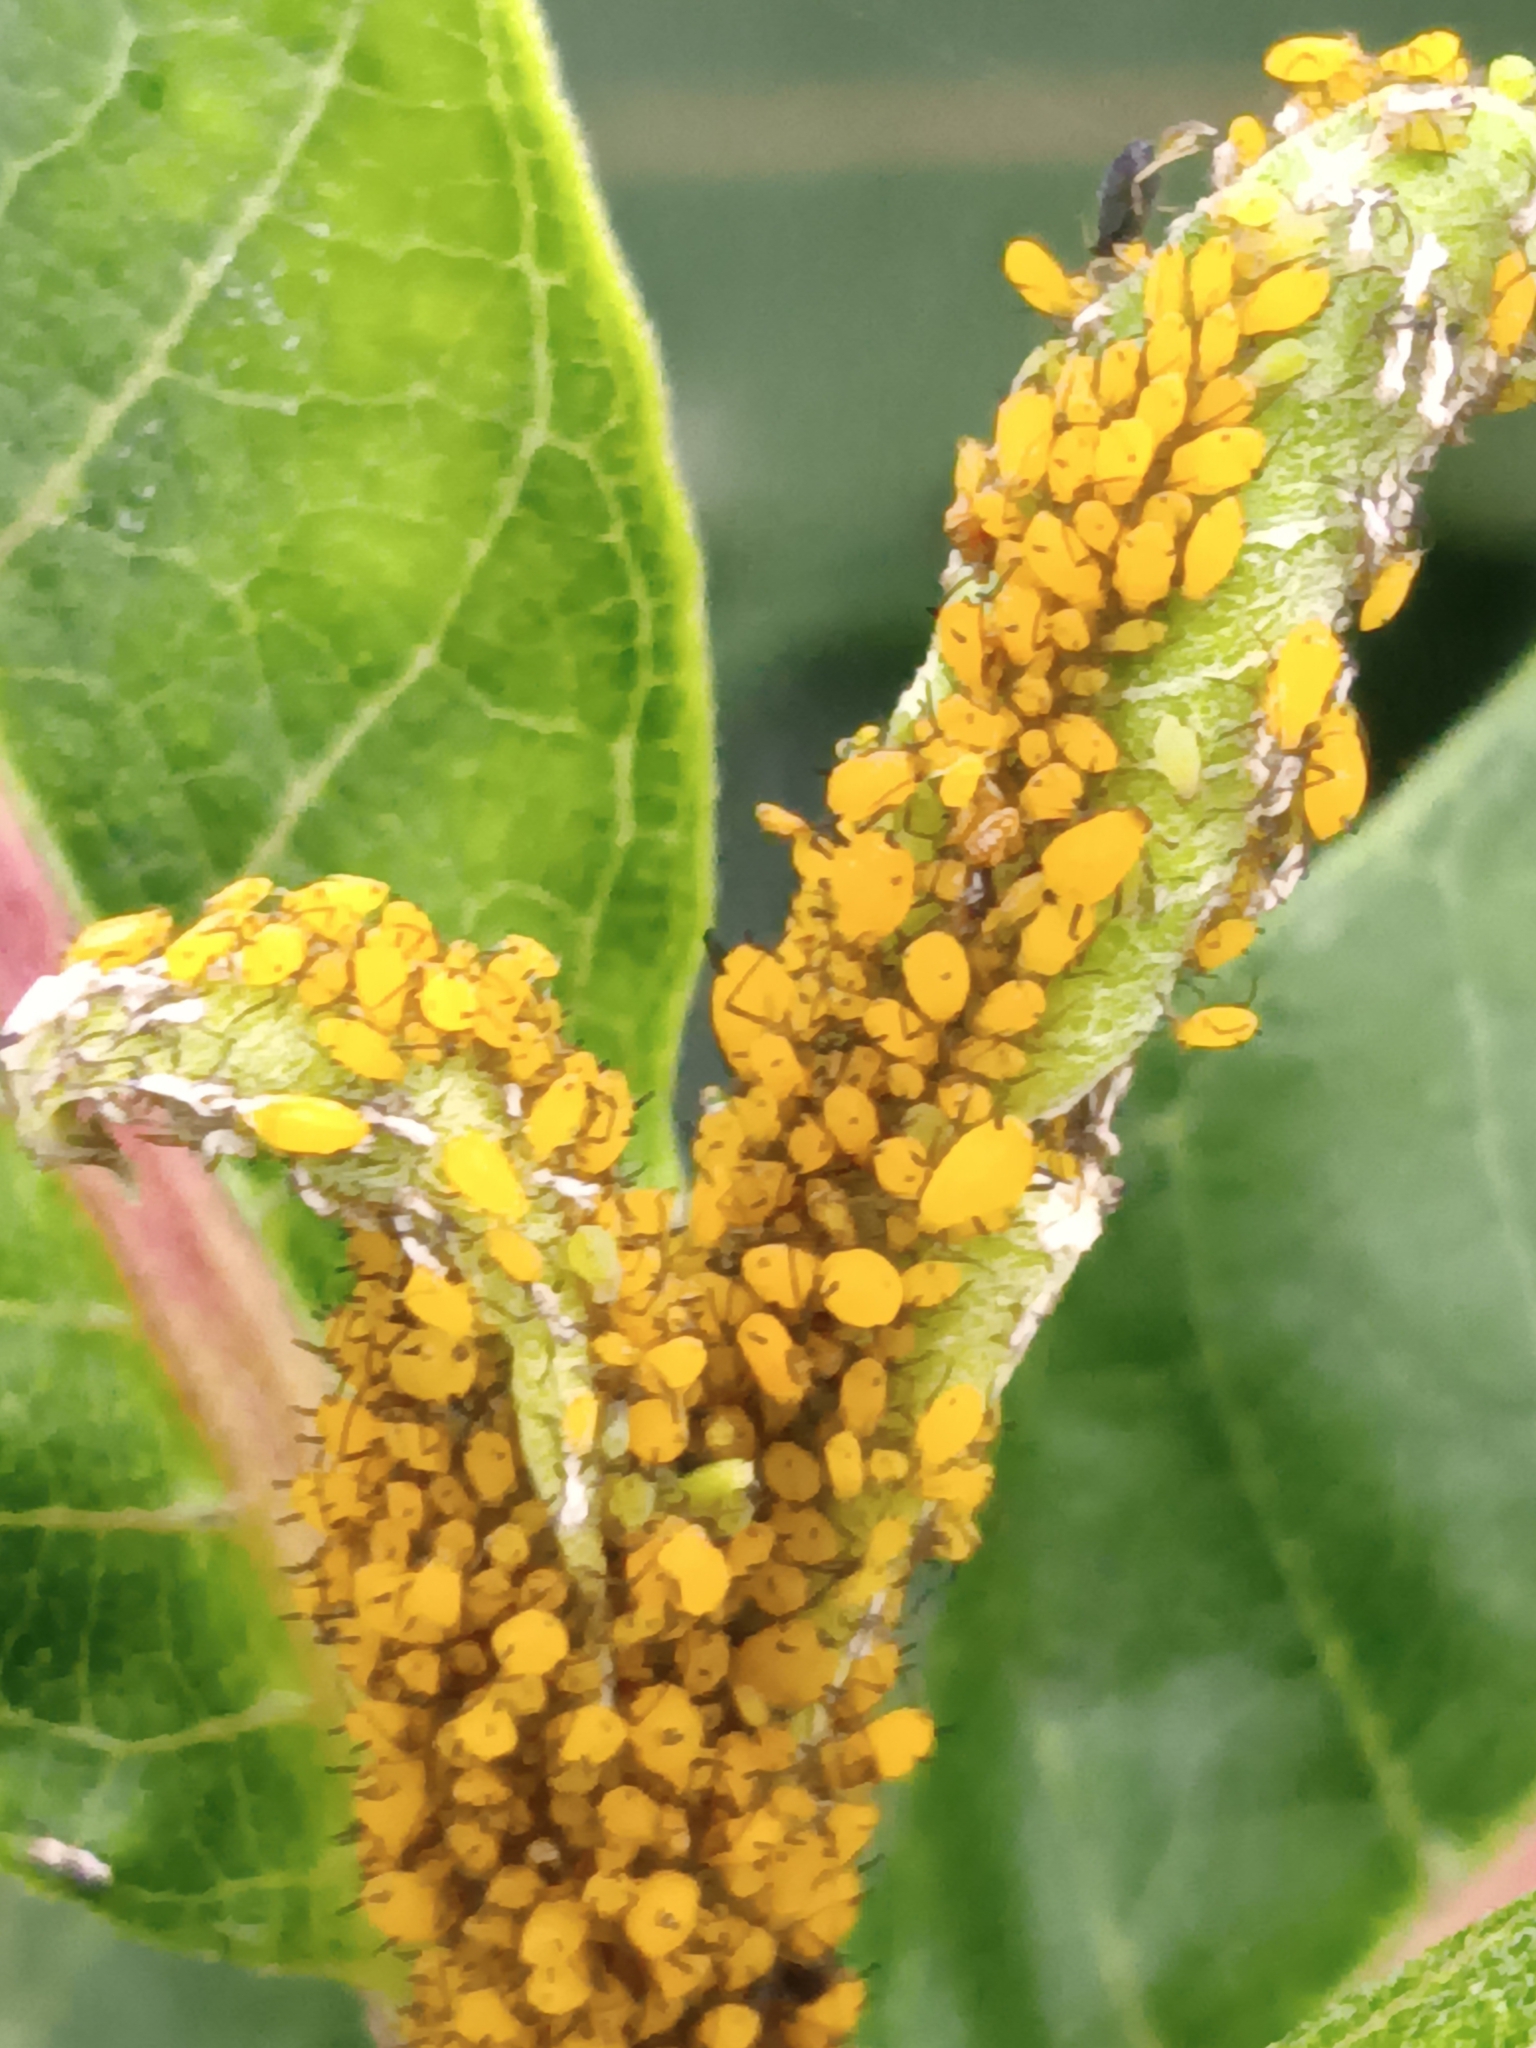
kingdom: Animalia
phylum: Arthropoda
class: Insecta
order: Hemiptera
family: Aphididae
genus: Aphis
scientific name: Aphis nerii
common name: Oleander aphid
